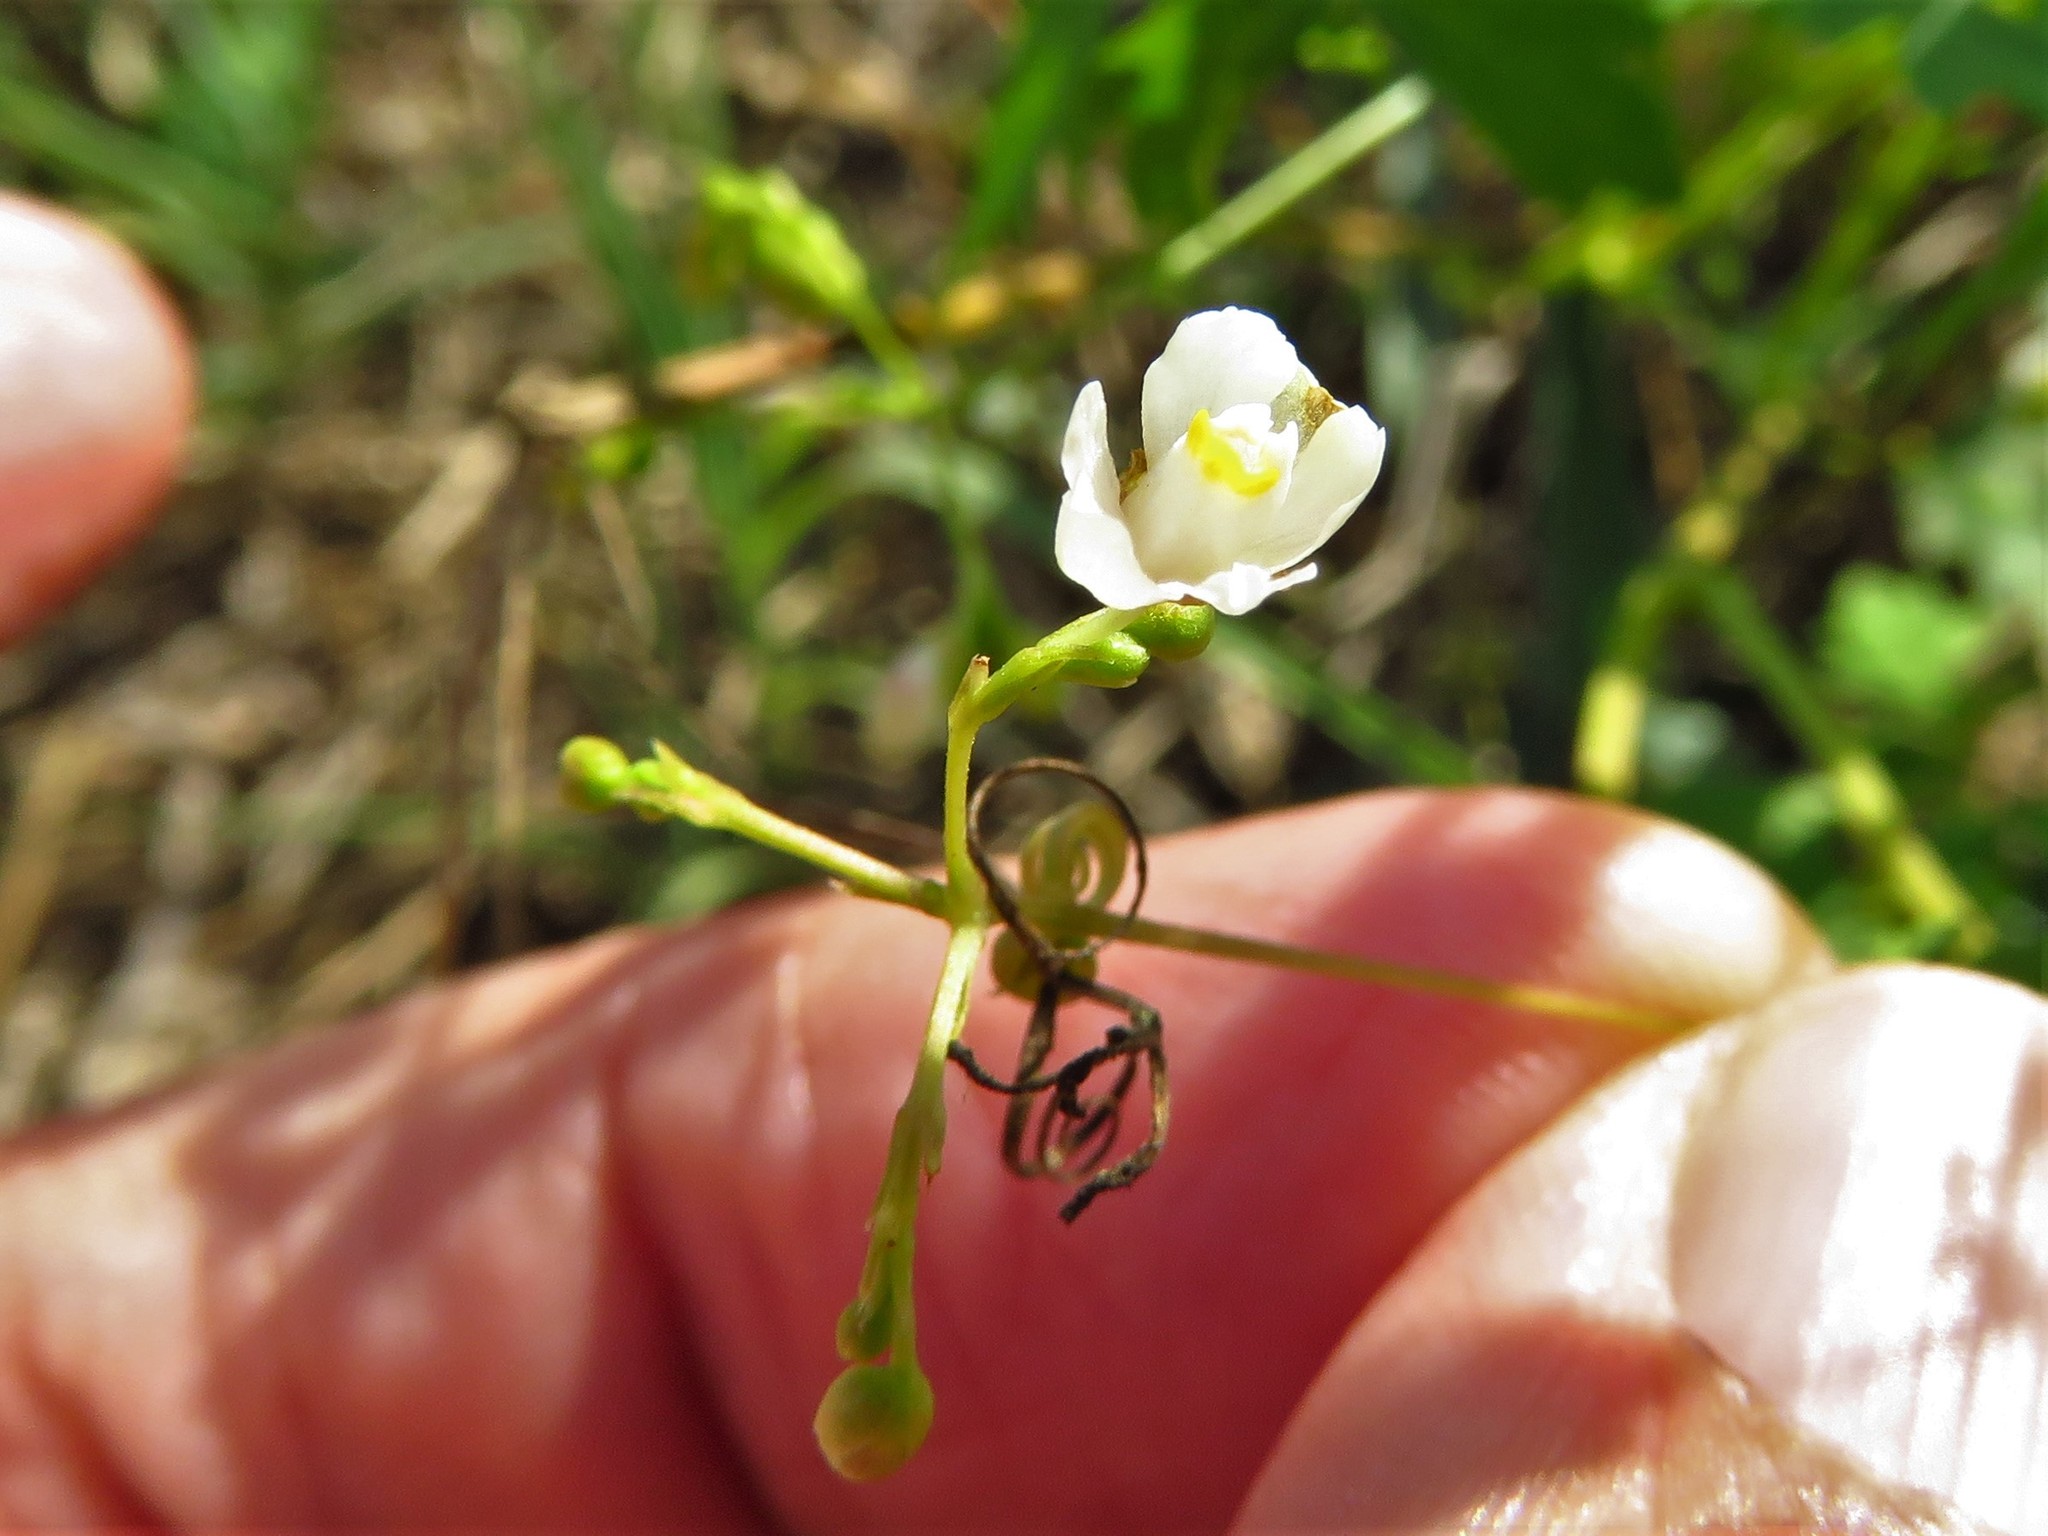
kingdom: Plantae
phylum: Tracheophyta
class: Magnoliopsida
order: Sapindales
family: Sapindaceae
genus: Cardiospermum
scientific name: Cardiospermum halicacabum
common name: Balloon vine
